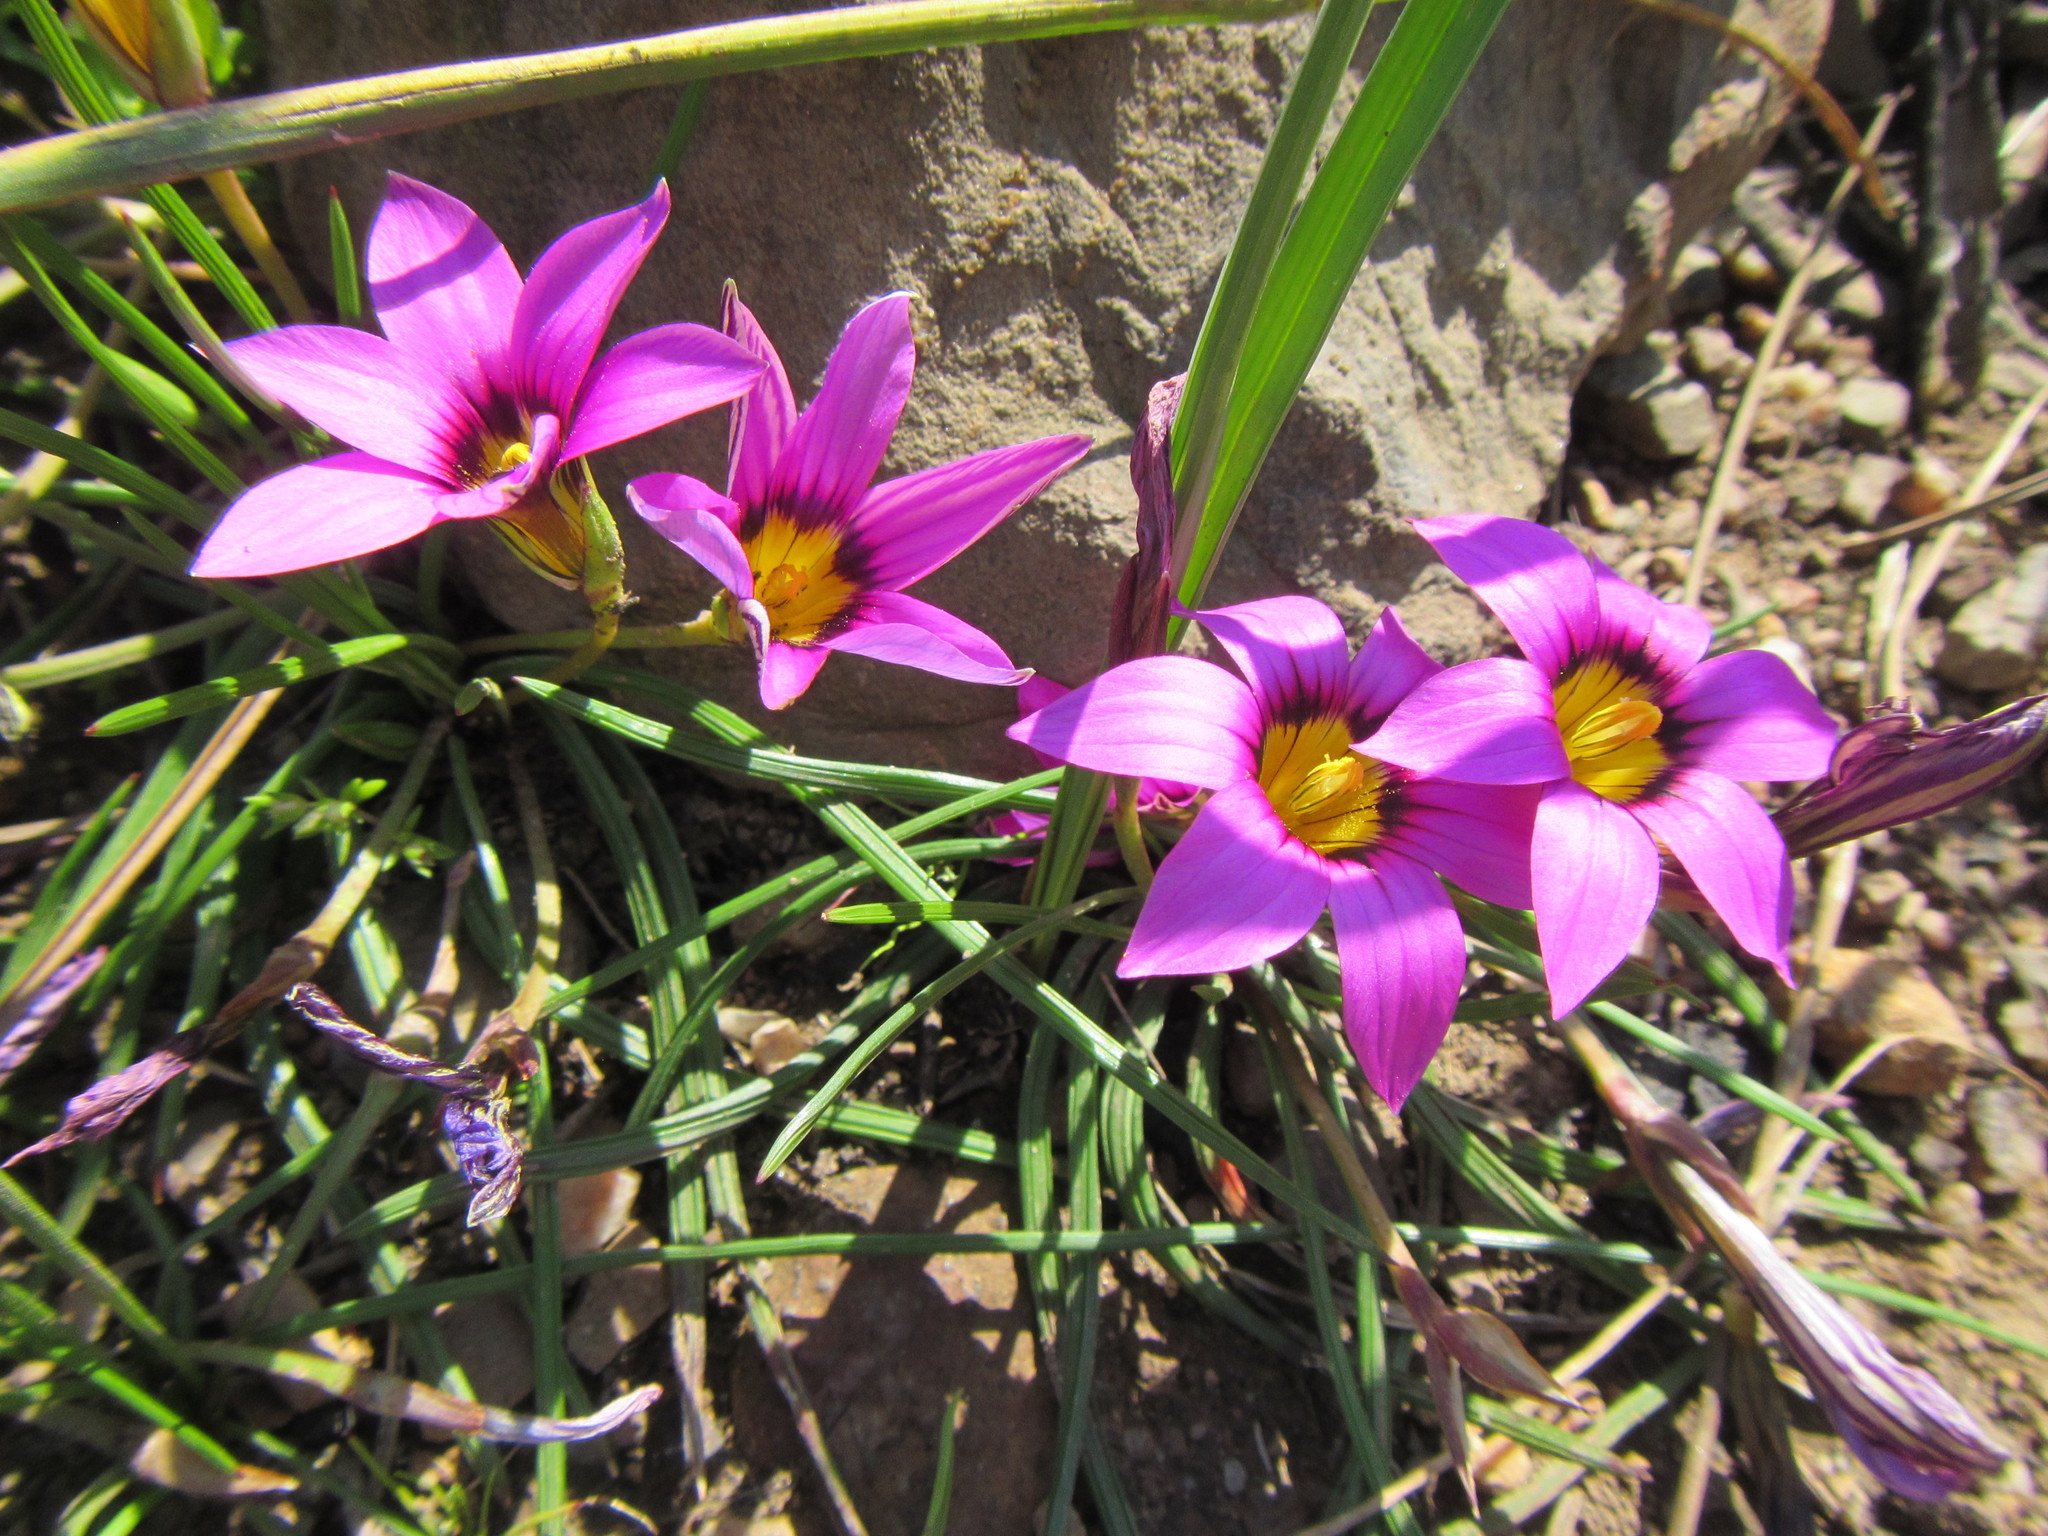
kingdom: Plantae
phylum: Tracheophyta
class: Liliopsida
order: Asparagales
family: Iridaceae
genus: Romulea
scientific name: Romulea rosea
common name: Oniongrass
